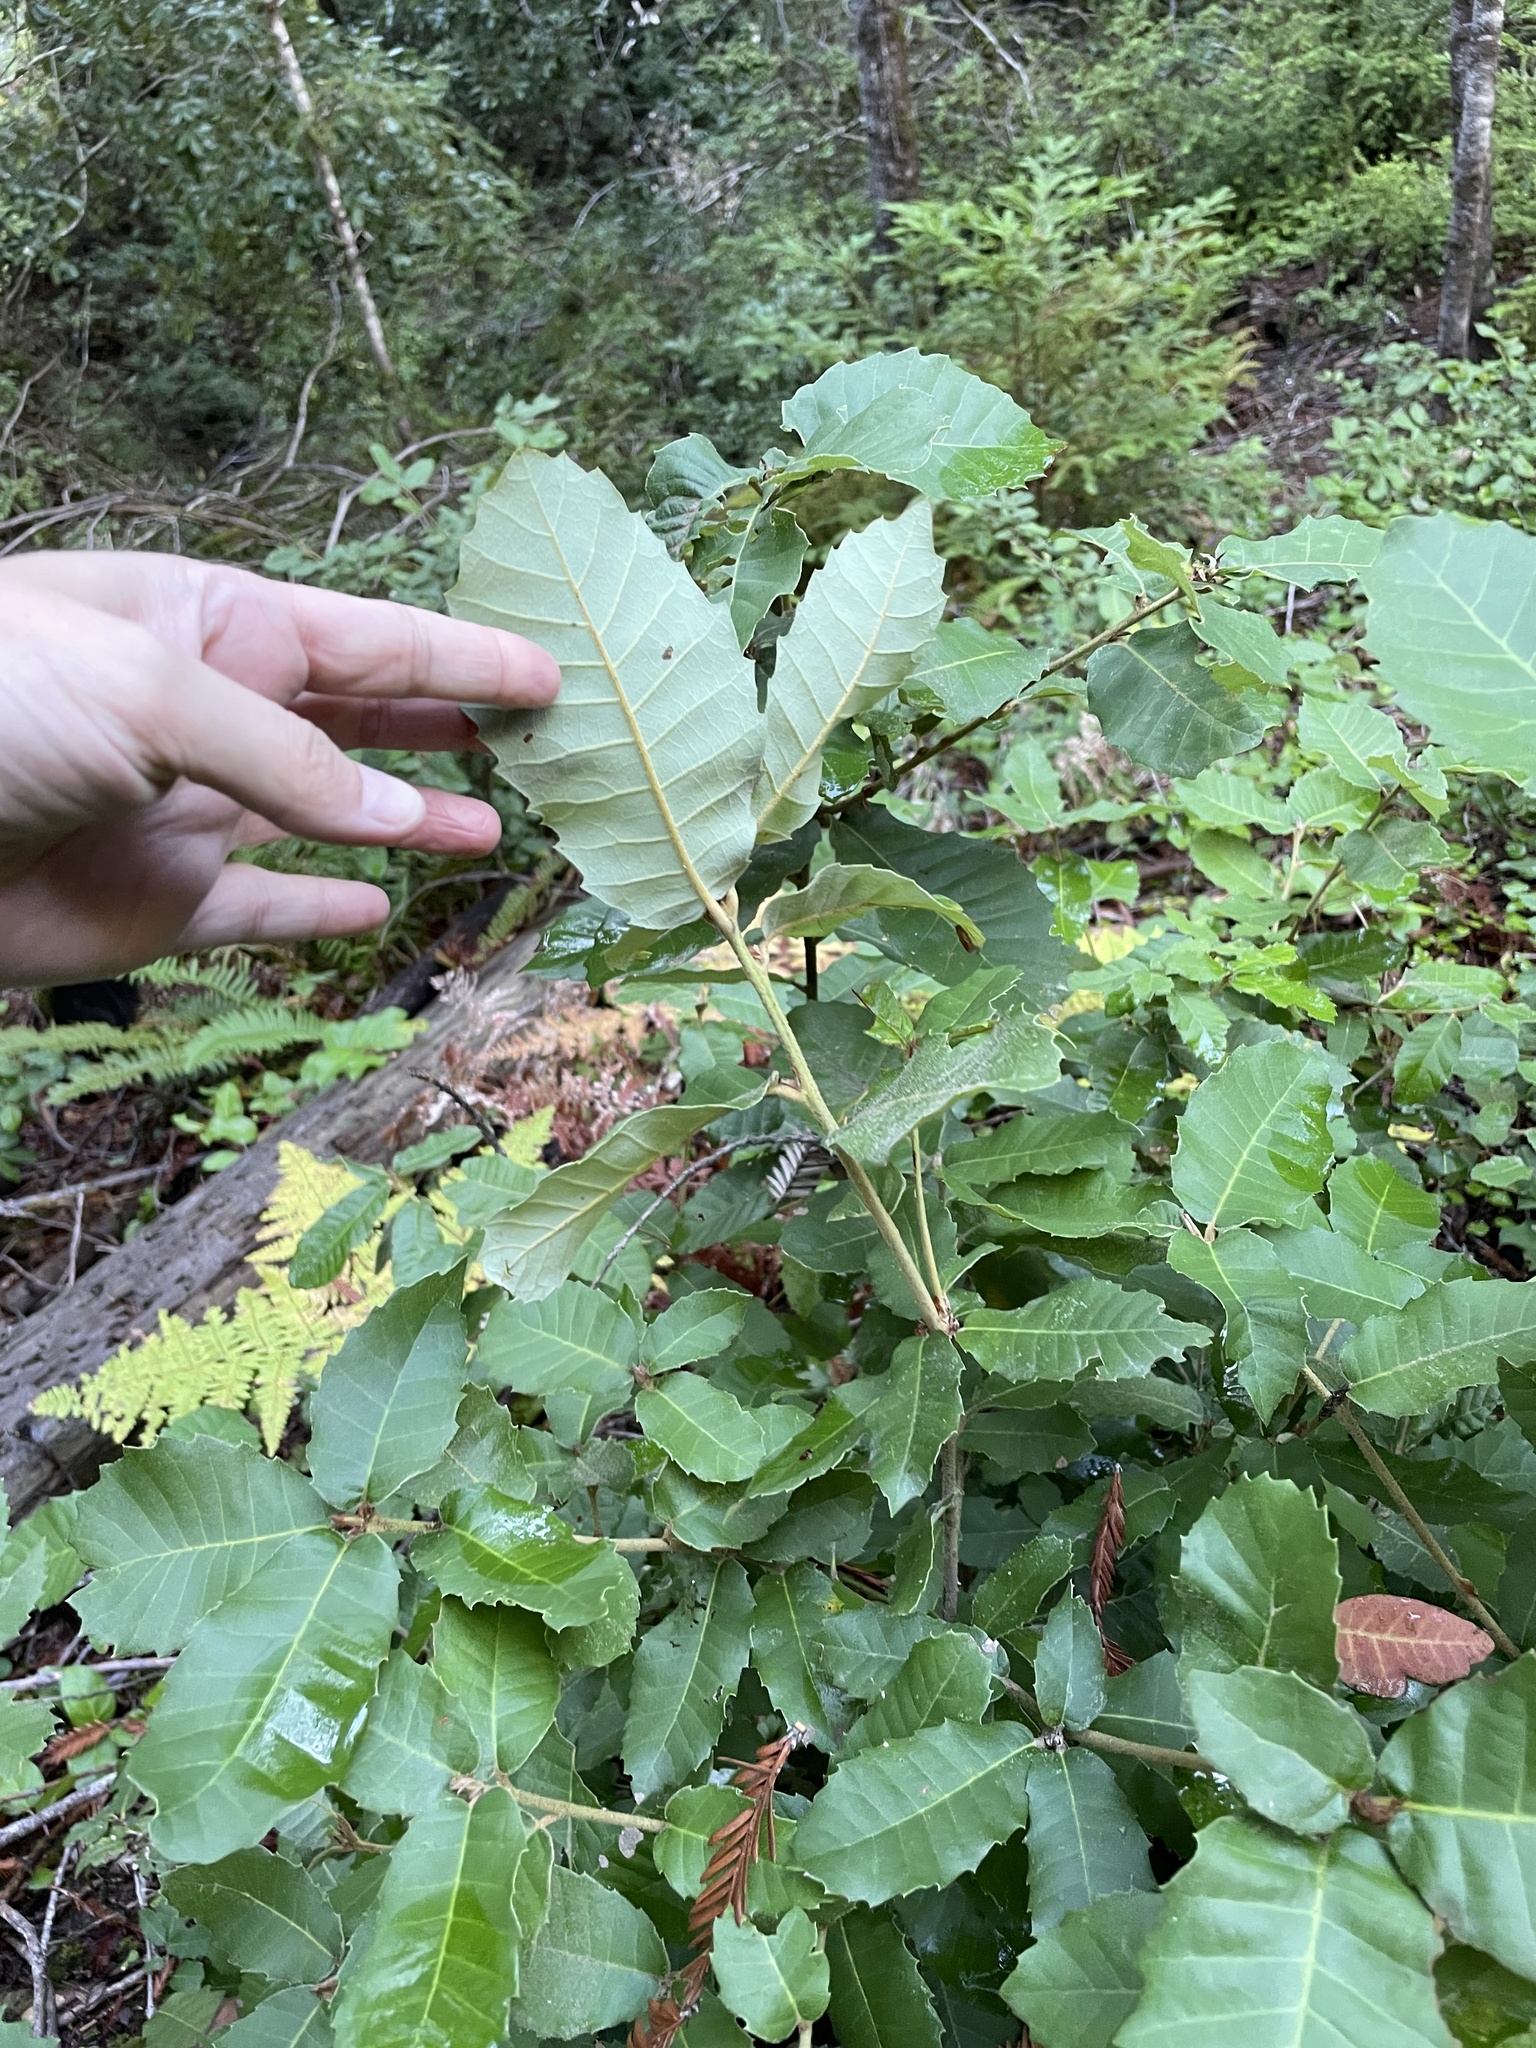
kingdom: Plantae
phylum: Tracheophyta
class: Magnoliopsida
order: Fagales
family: Fagaceae
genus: Notholithocarpus
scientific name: Notholithocarpus densiflorus
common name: Tan bark oak
